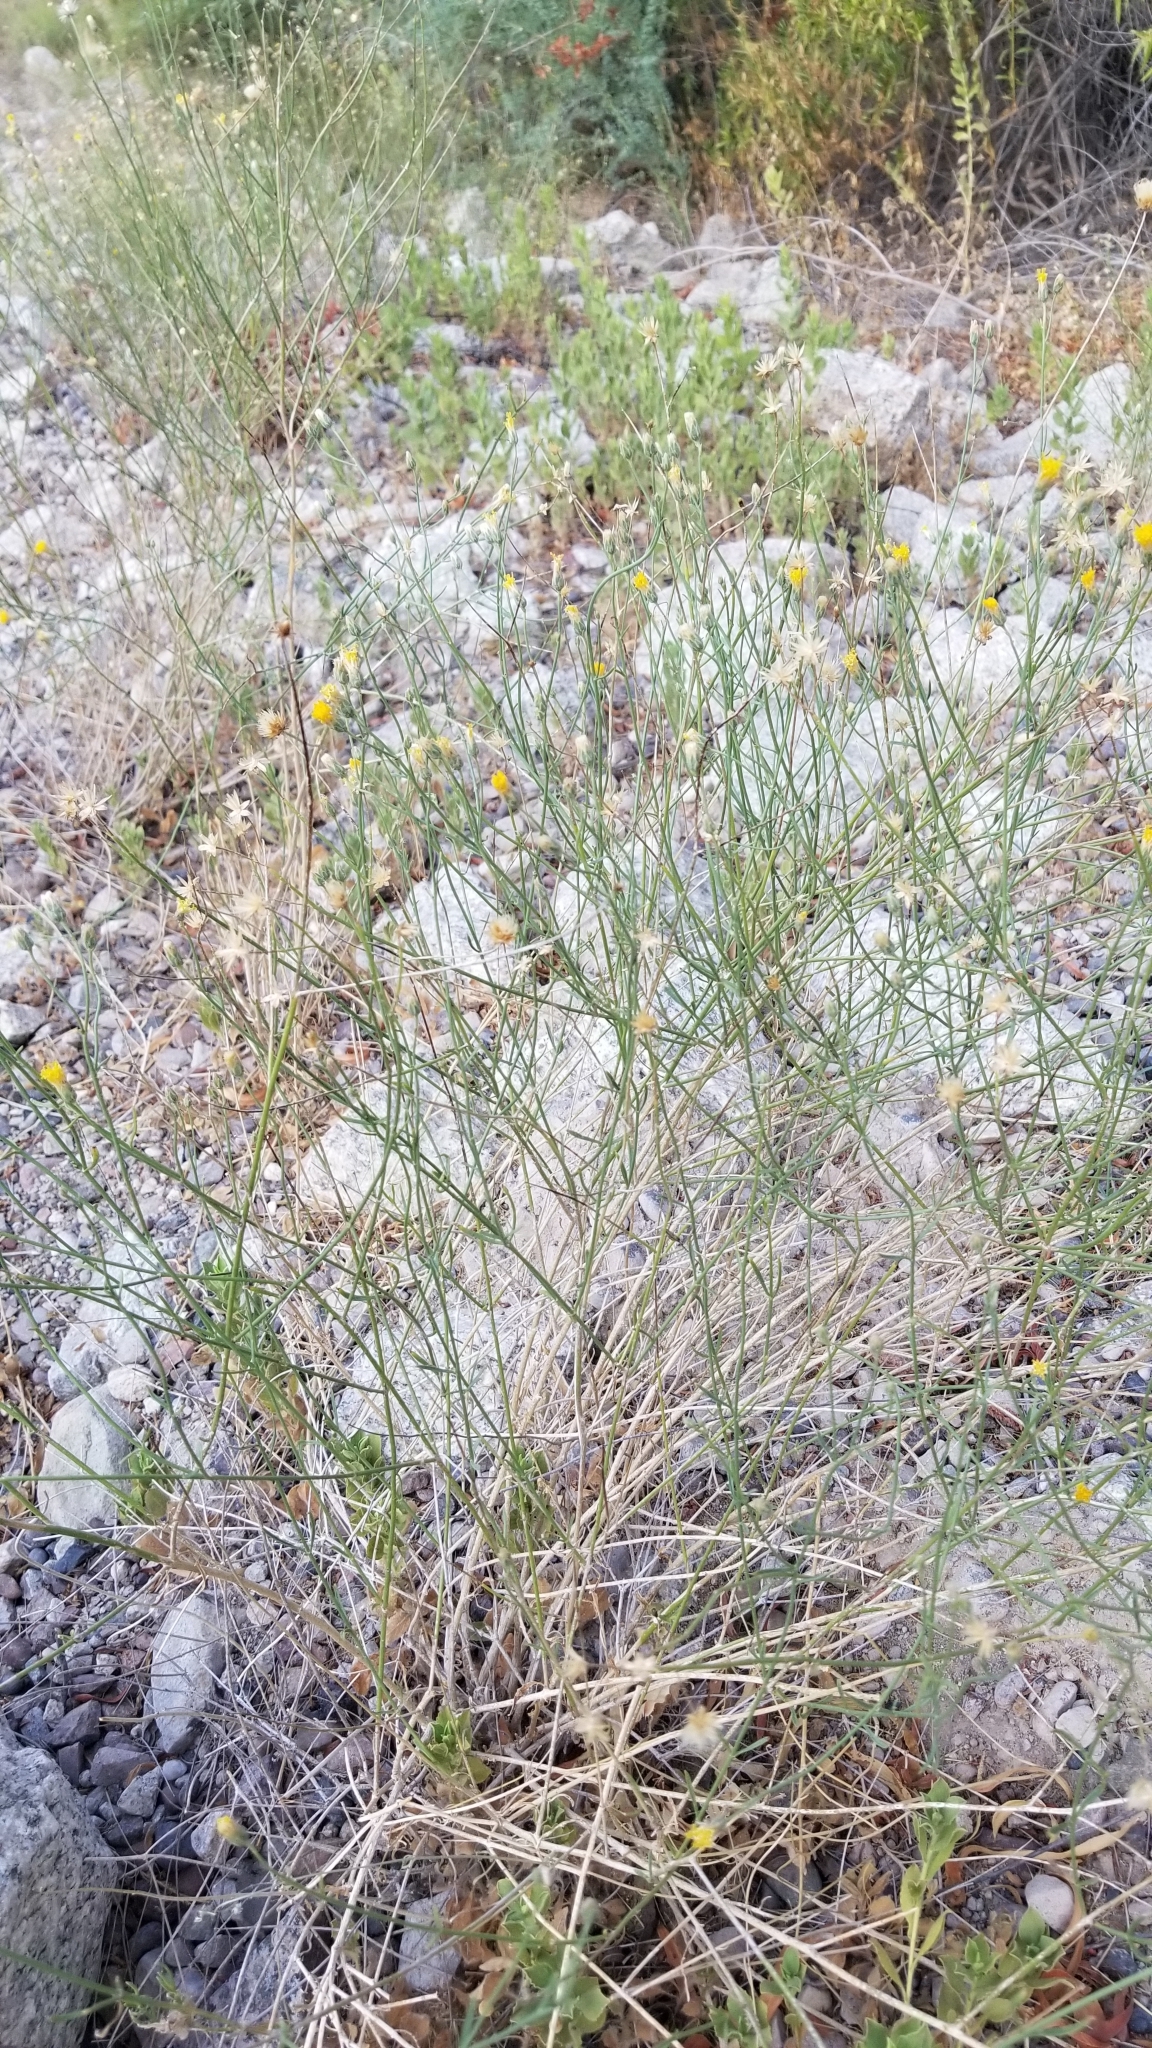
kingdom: Plantae
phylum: Tracheophyta
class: Magnoliopsida
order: Asterales
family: Asteraceae
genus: Bebbia
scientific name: Bebbia juncea
